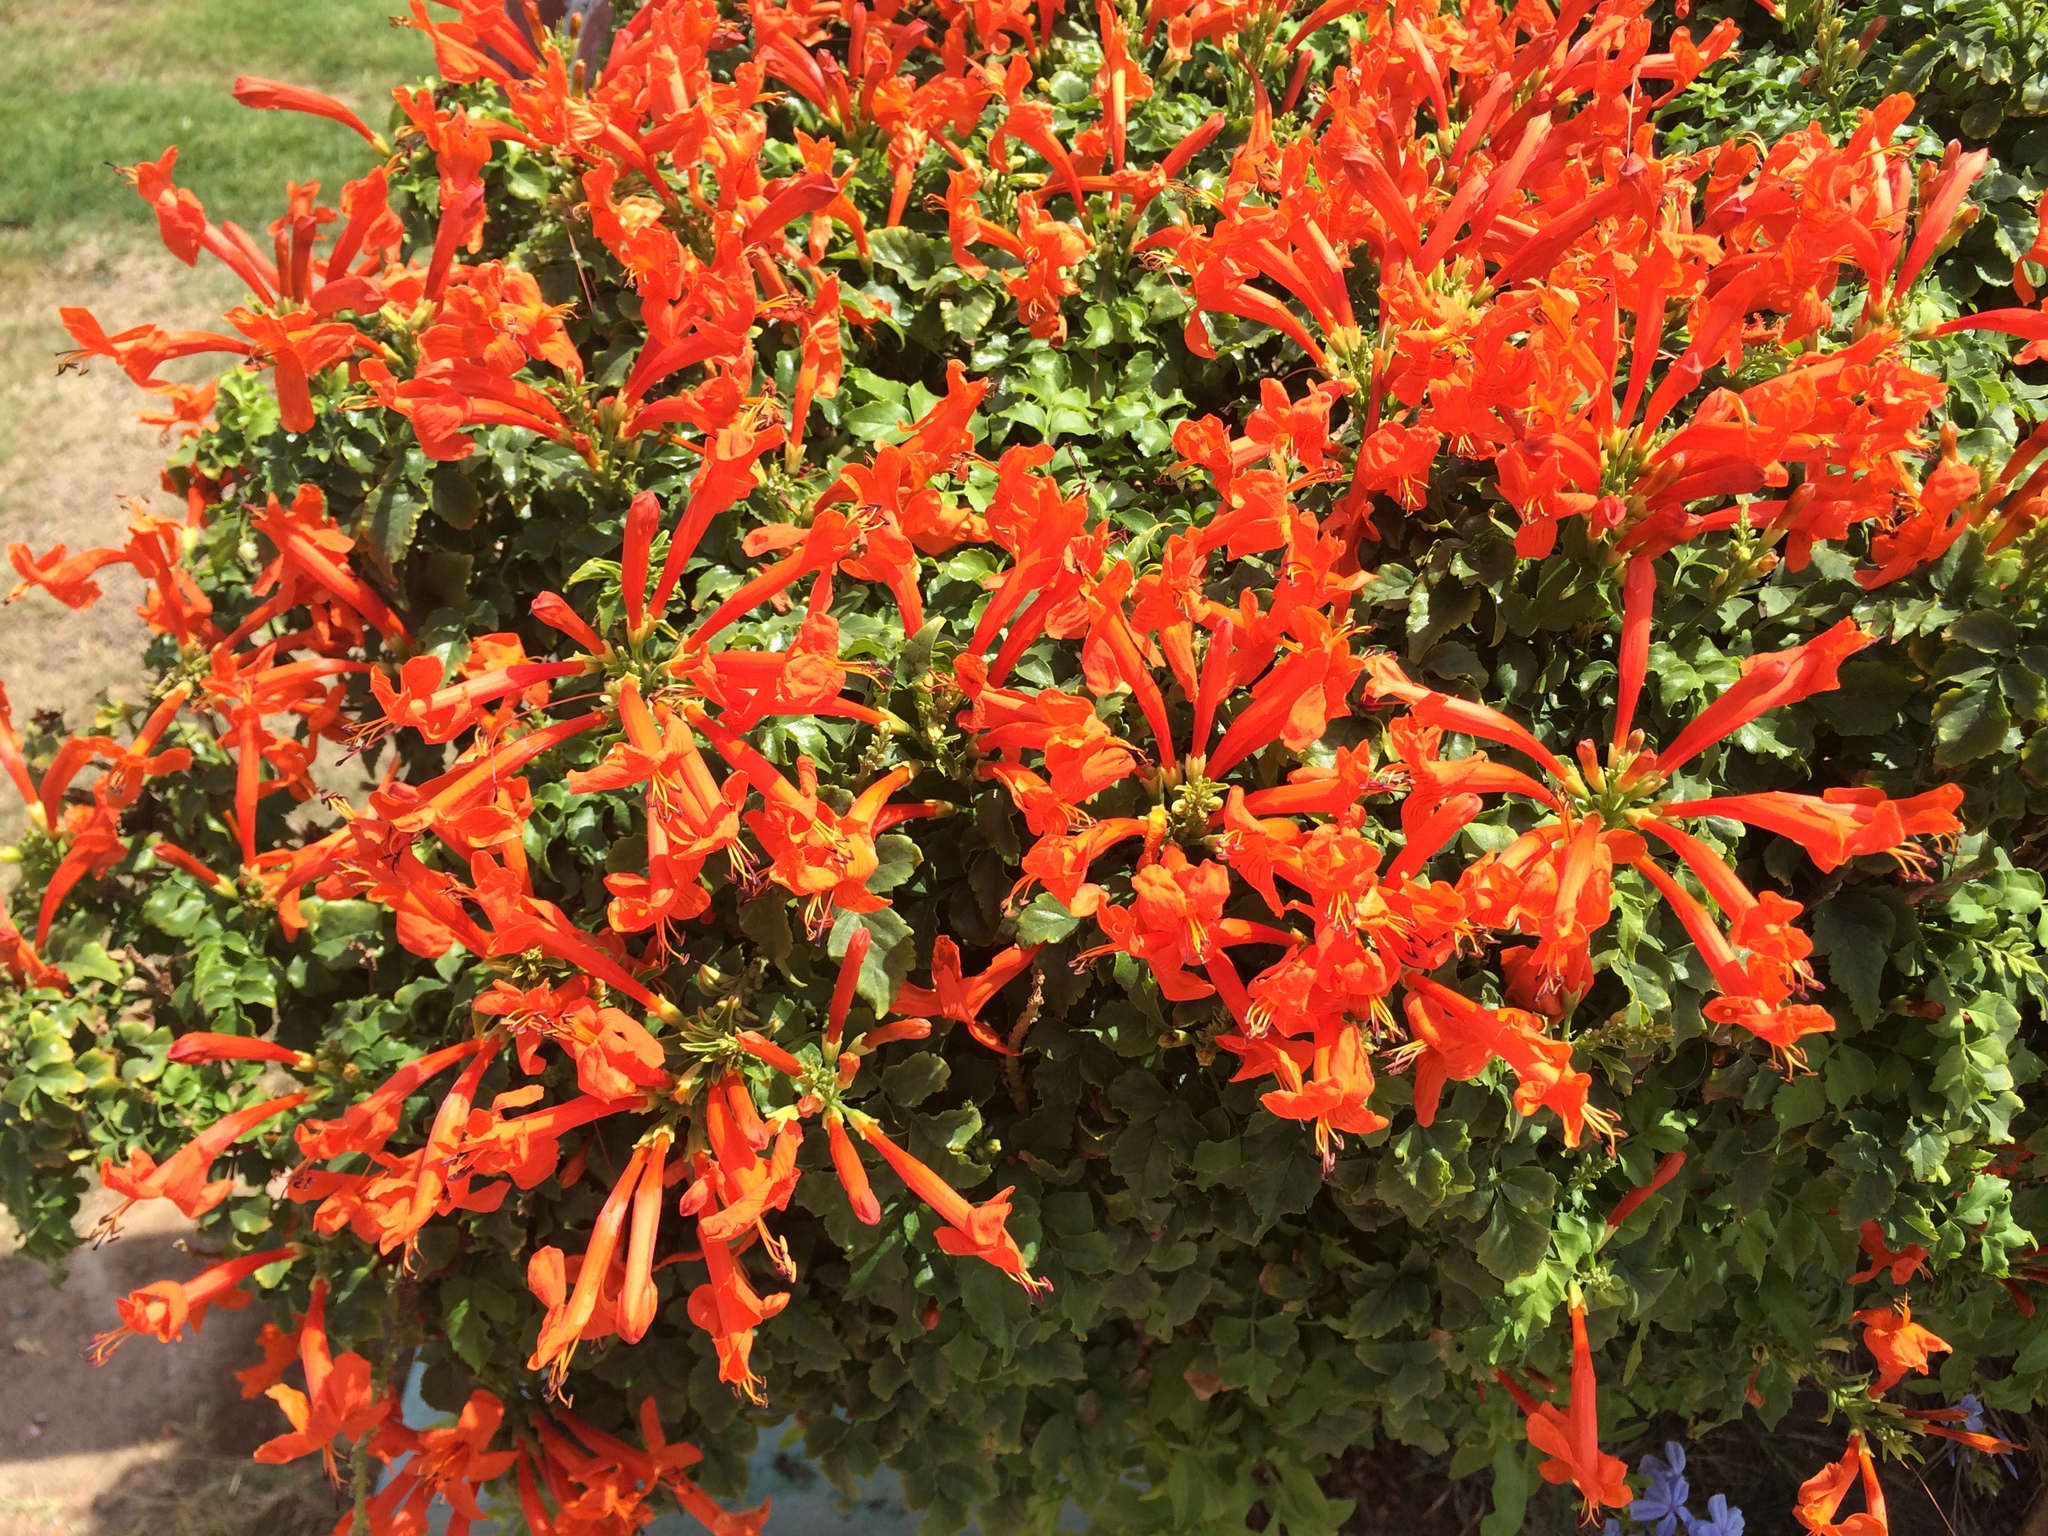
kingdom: Plantae
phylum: Tracheophyta
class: Magnoliopsida
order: Lamiales
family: Bignoniaceae
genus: Tecomaria
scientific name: Tecomaria capensis
